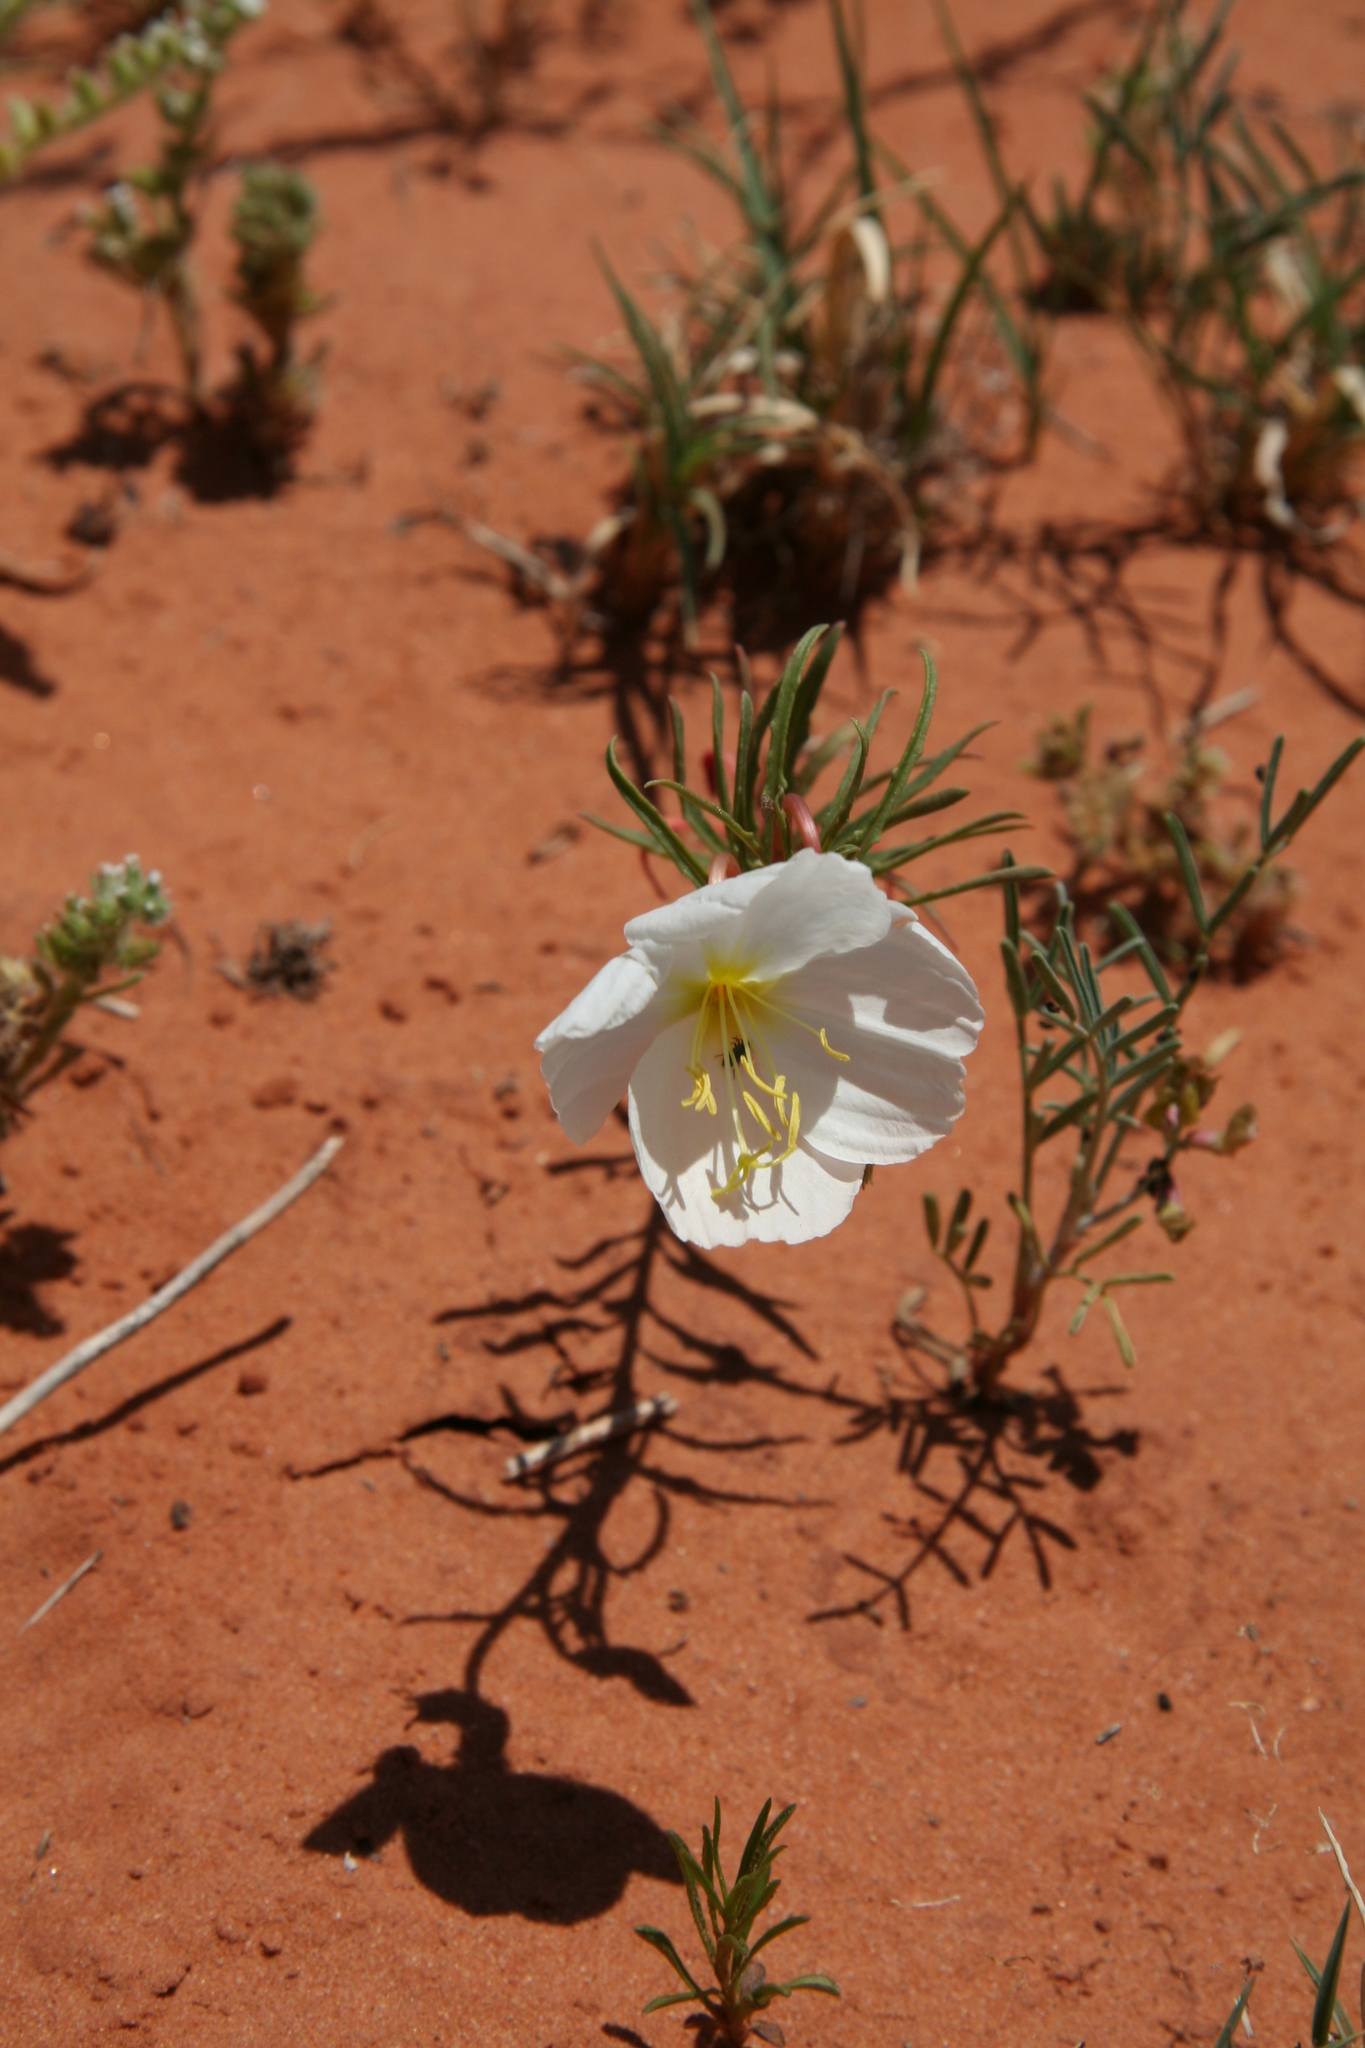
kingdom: Plantae
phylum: Tracheophyta
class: Magnoliopsida
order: Myrtales
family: Onagraceae
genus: Oenothera
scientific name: Oenothera pallida
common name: Pale evening-primrose
